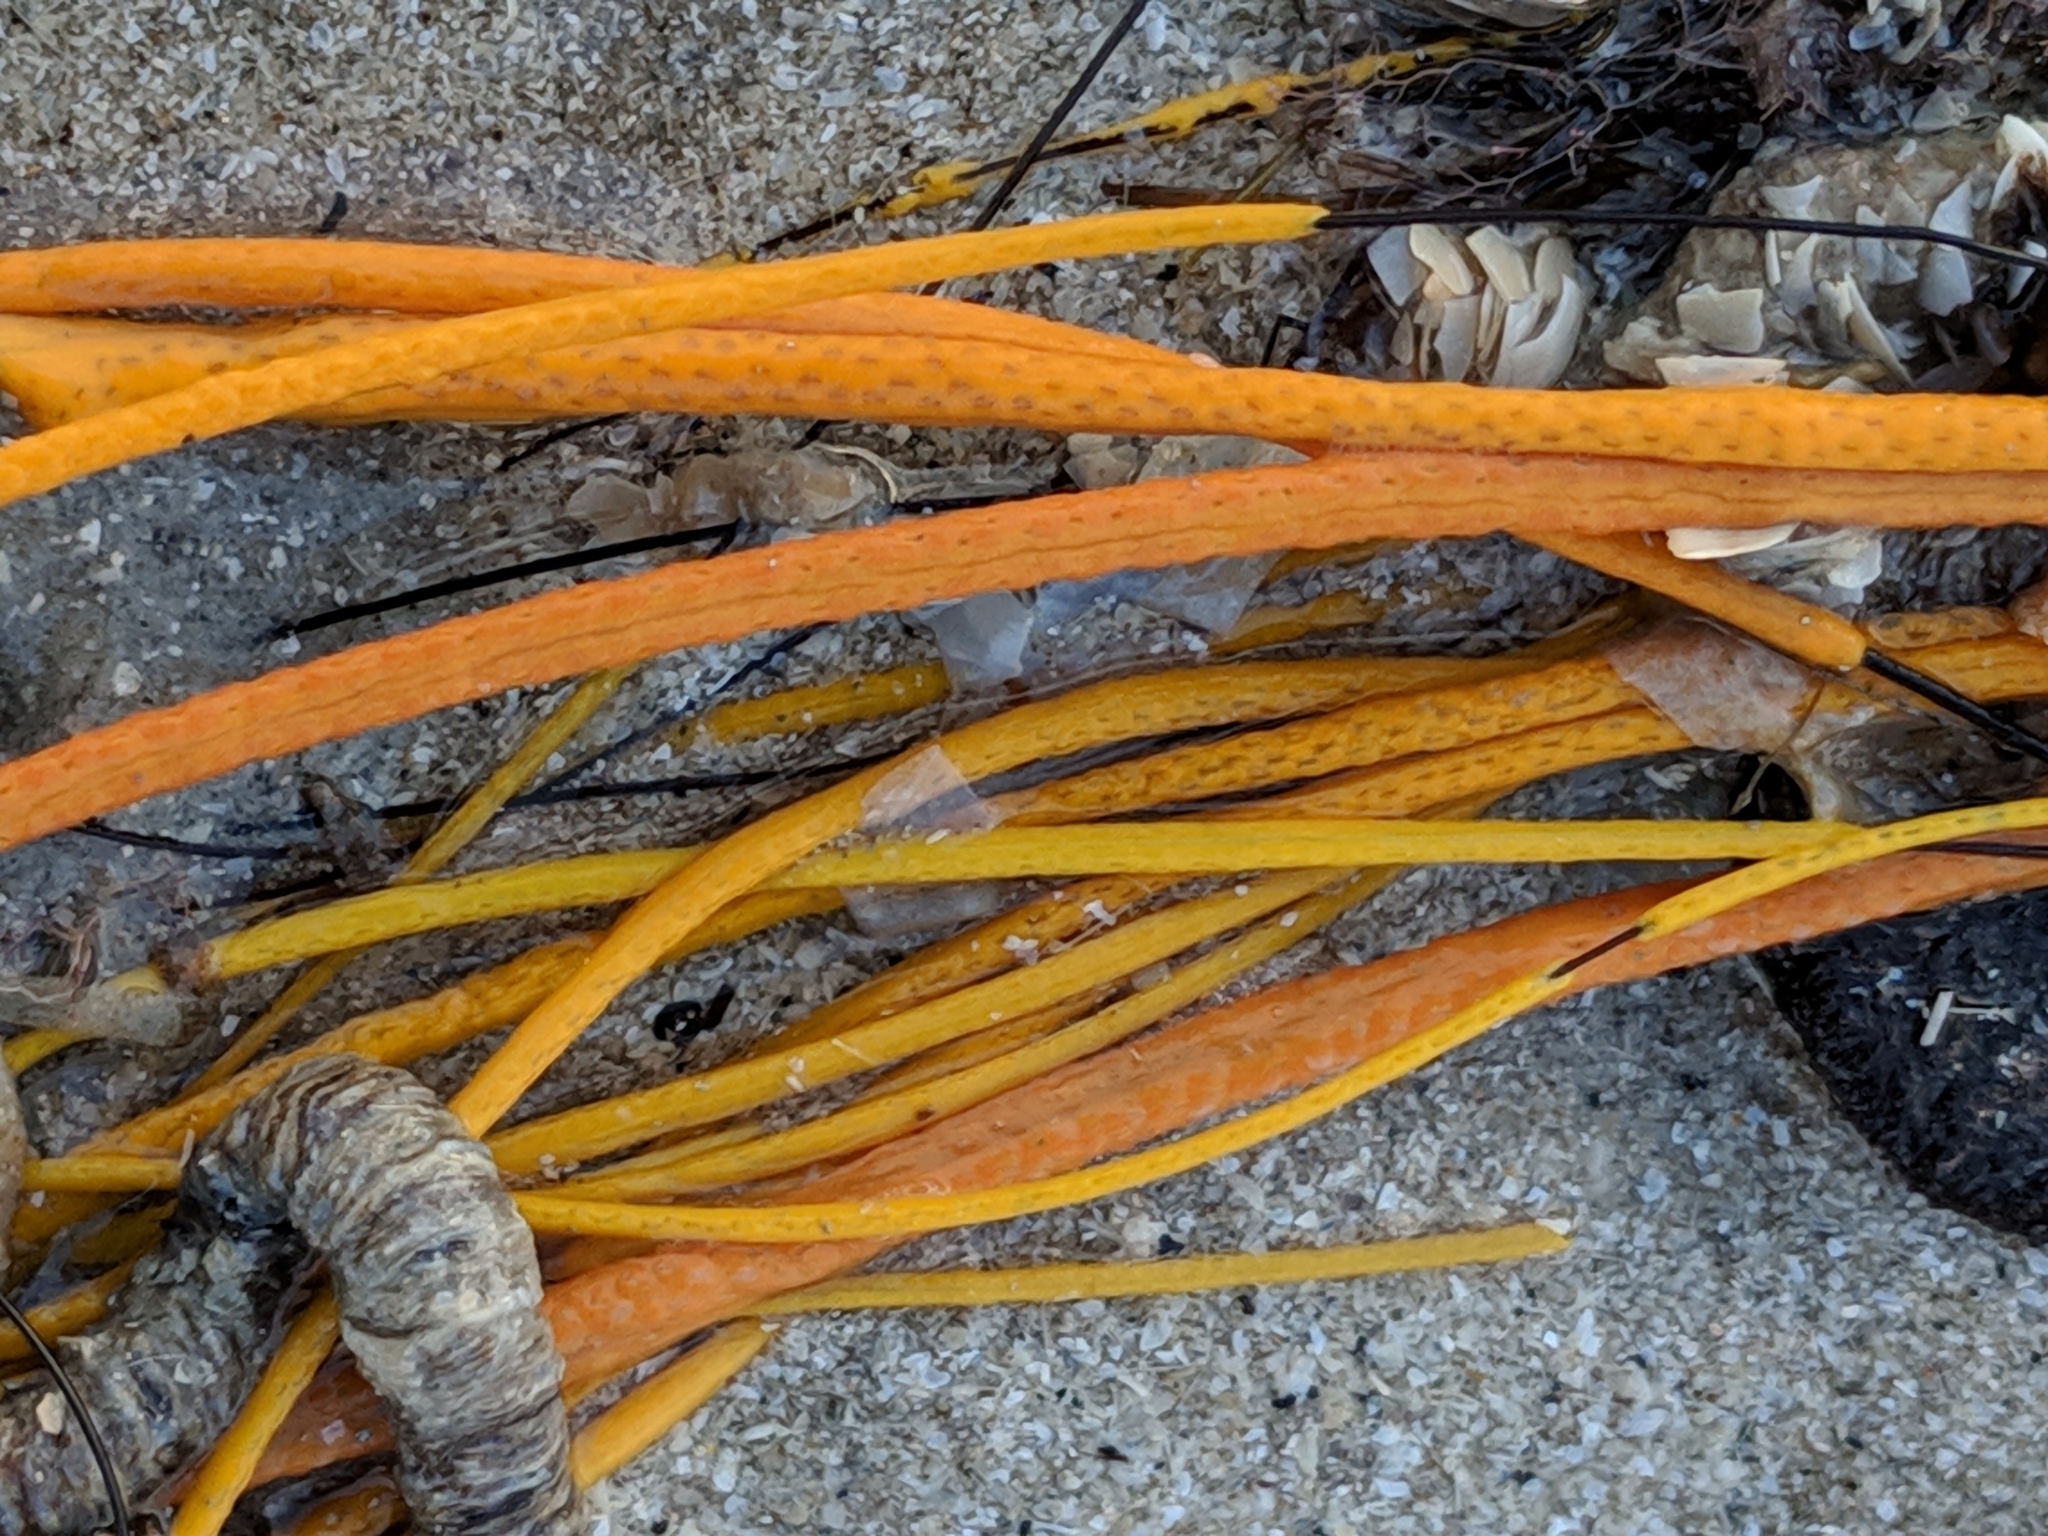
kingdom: Animalia
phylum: Cnidaria
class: Anthozoa
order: Malacalcyonacea
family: Gorgoniidae
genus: Leptogorgia
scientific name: Leptogorgia setacea
